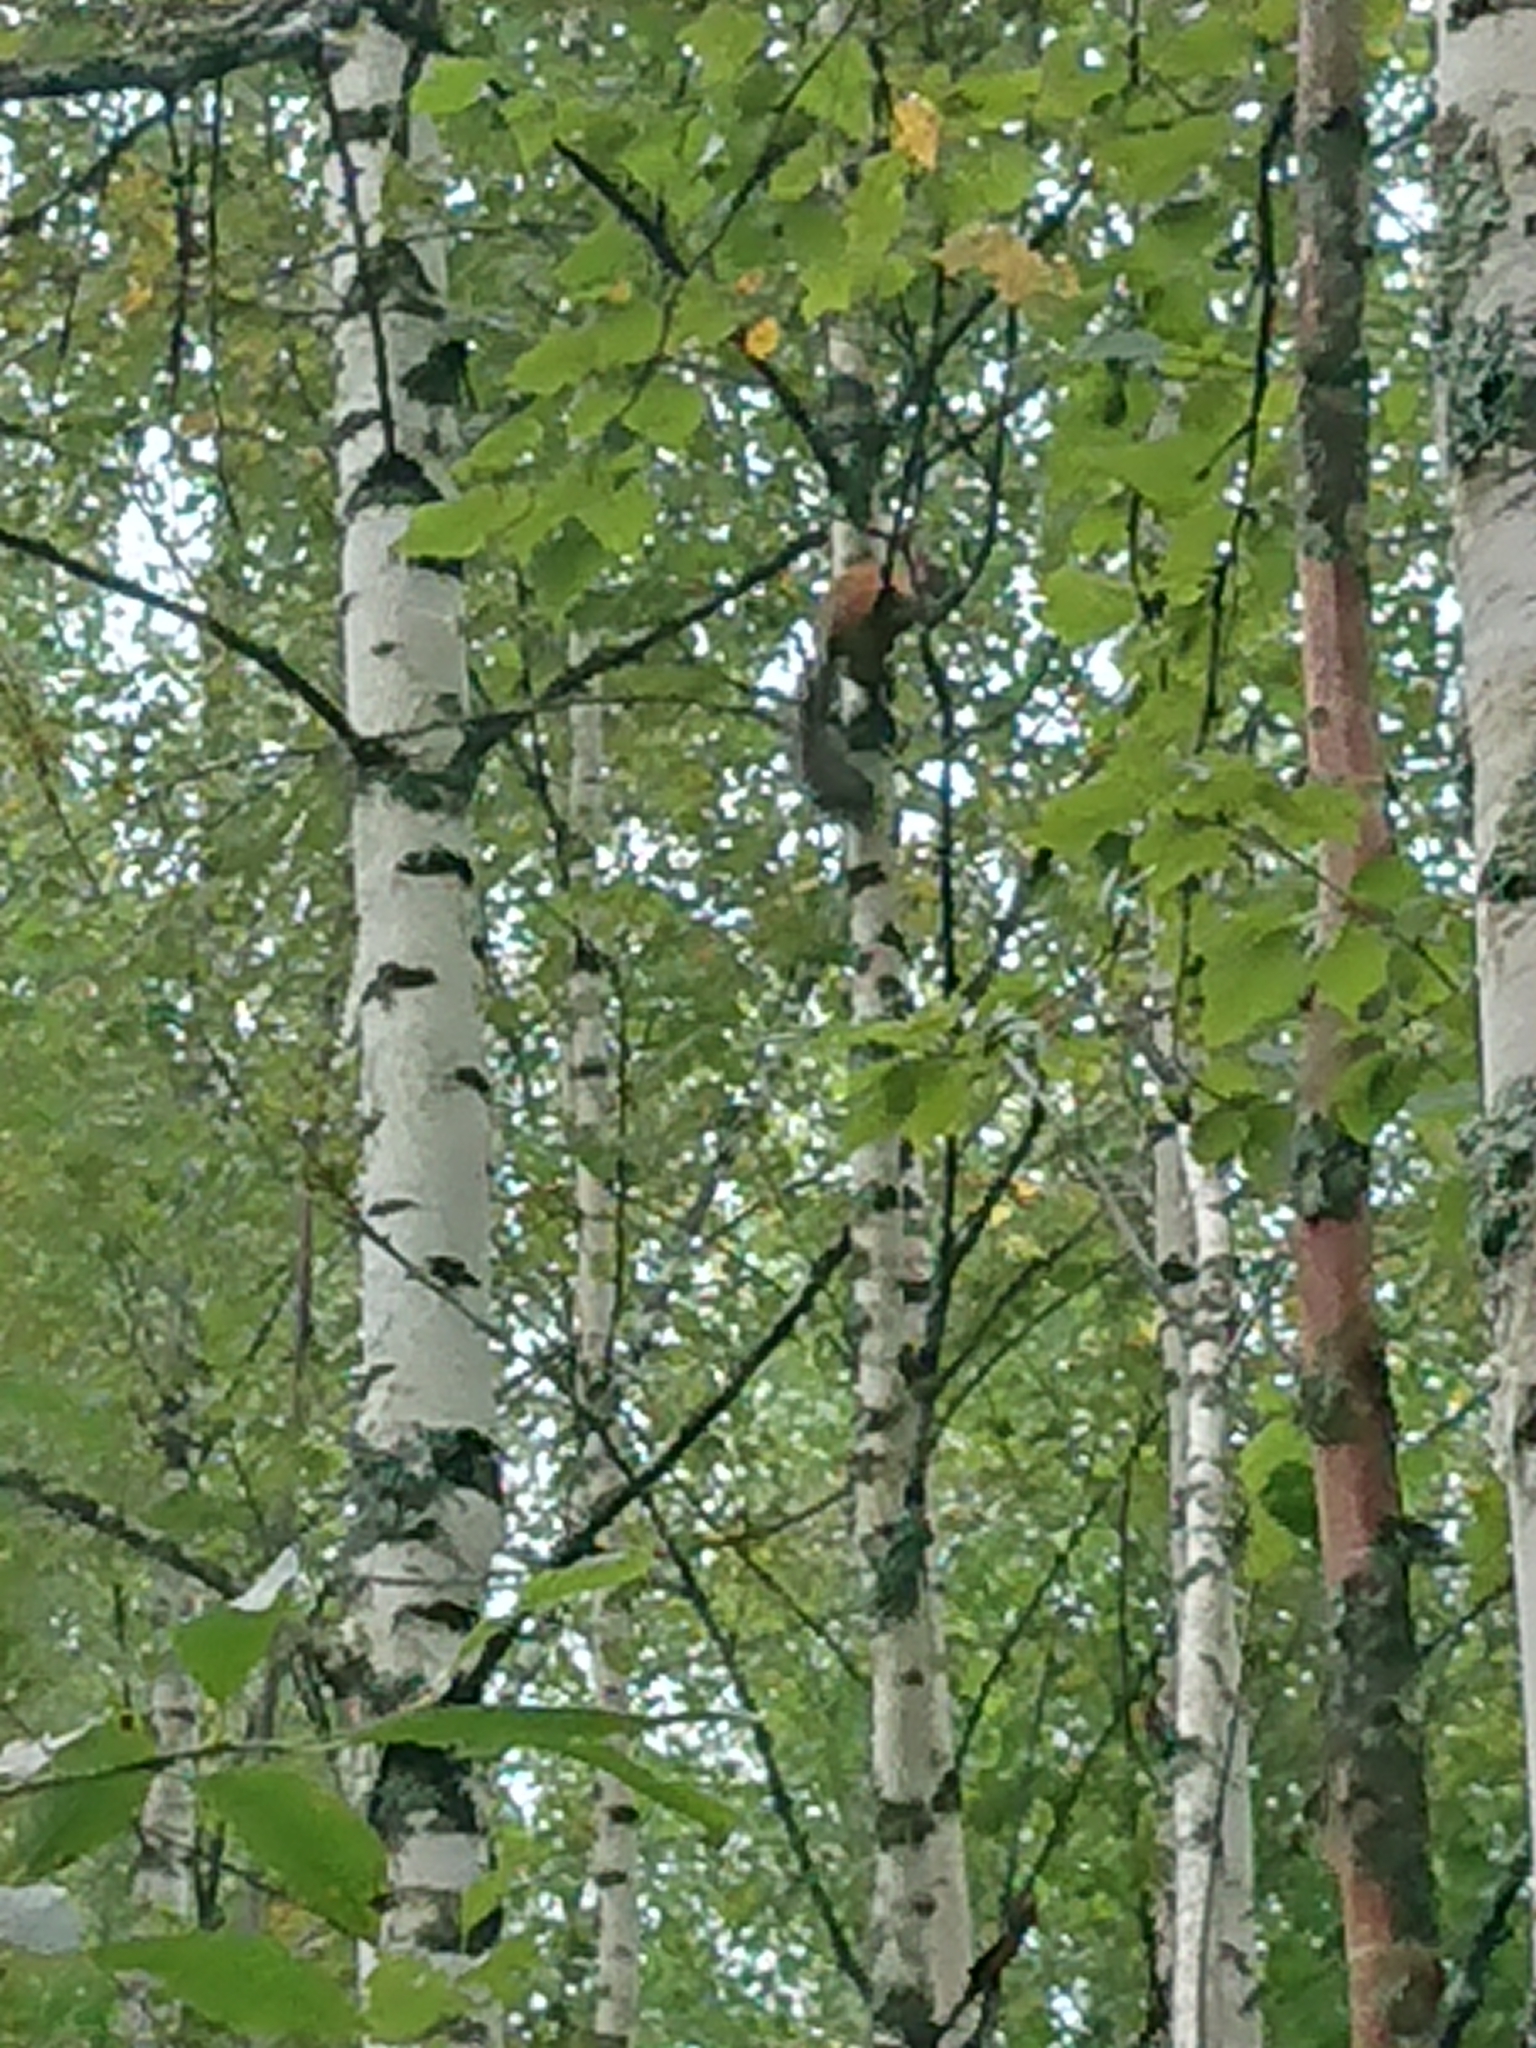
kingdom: Animalia
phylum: Chordata
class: Mammalia
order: Rodentia
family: Sciuridae
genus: Sciurus
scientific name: Sciurus vulgaris
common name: Eurasian red squirrel
